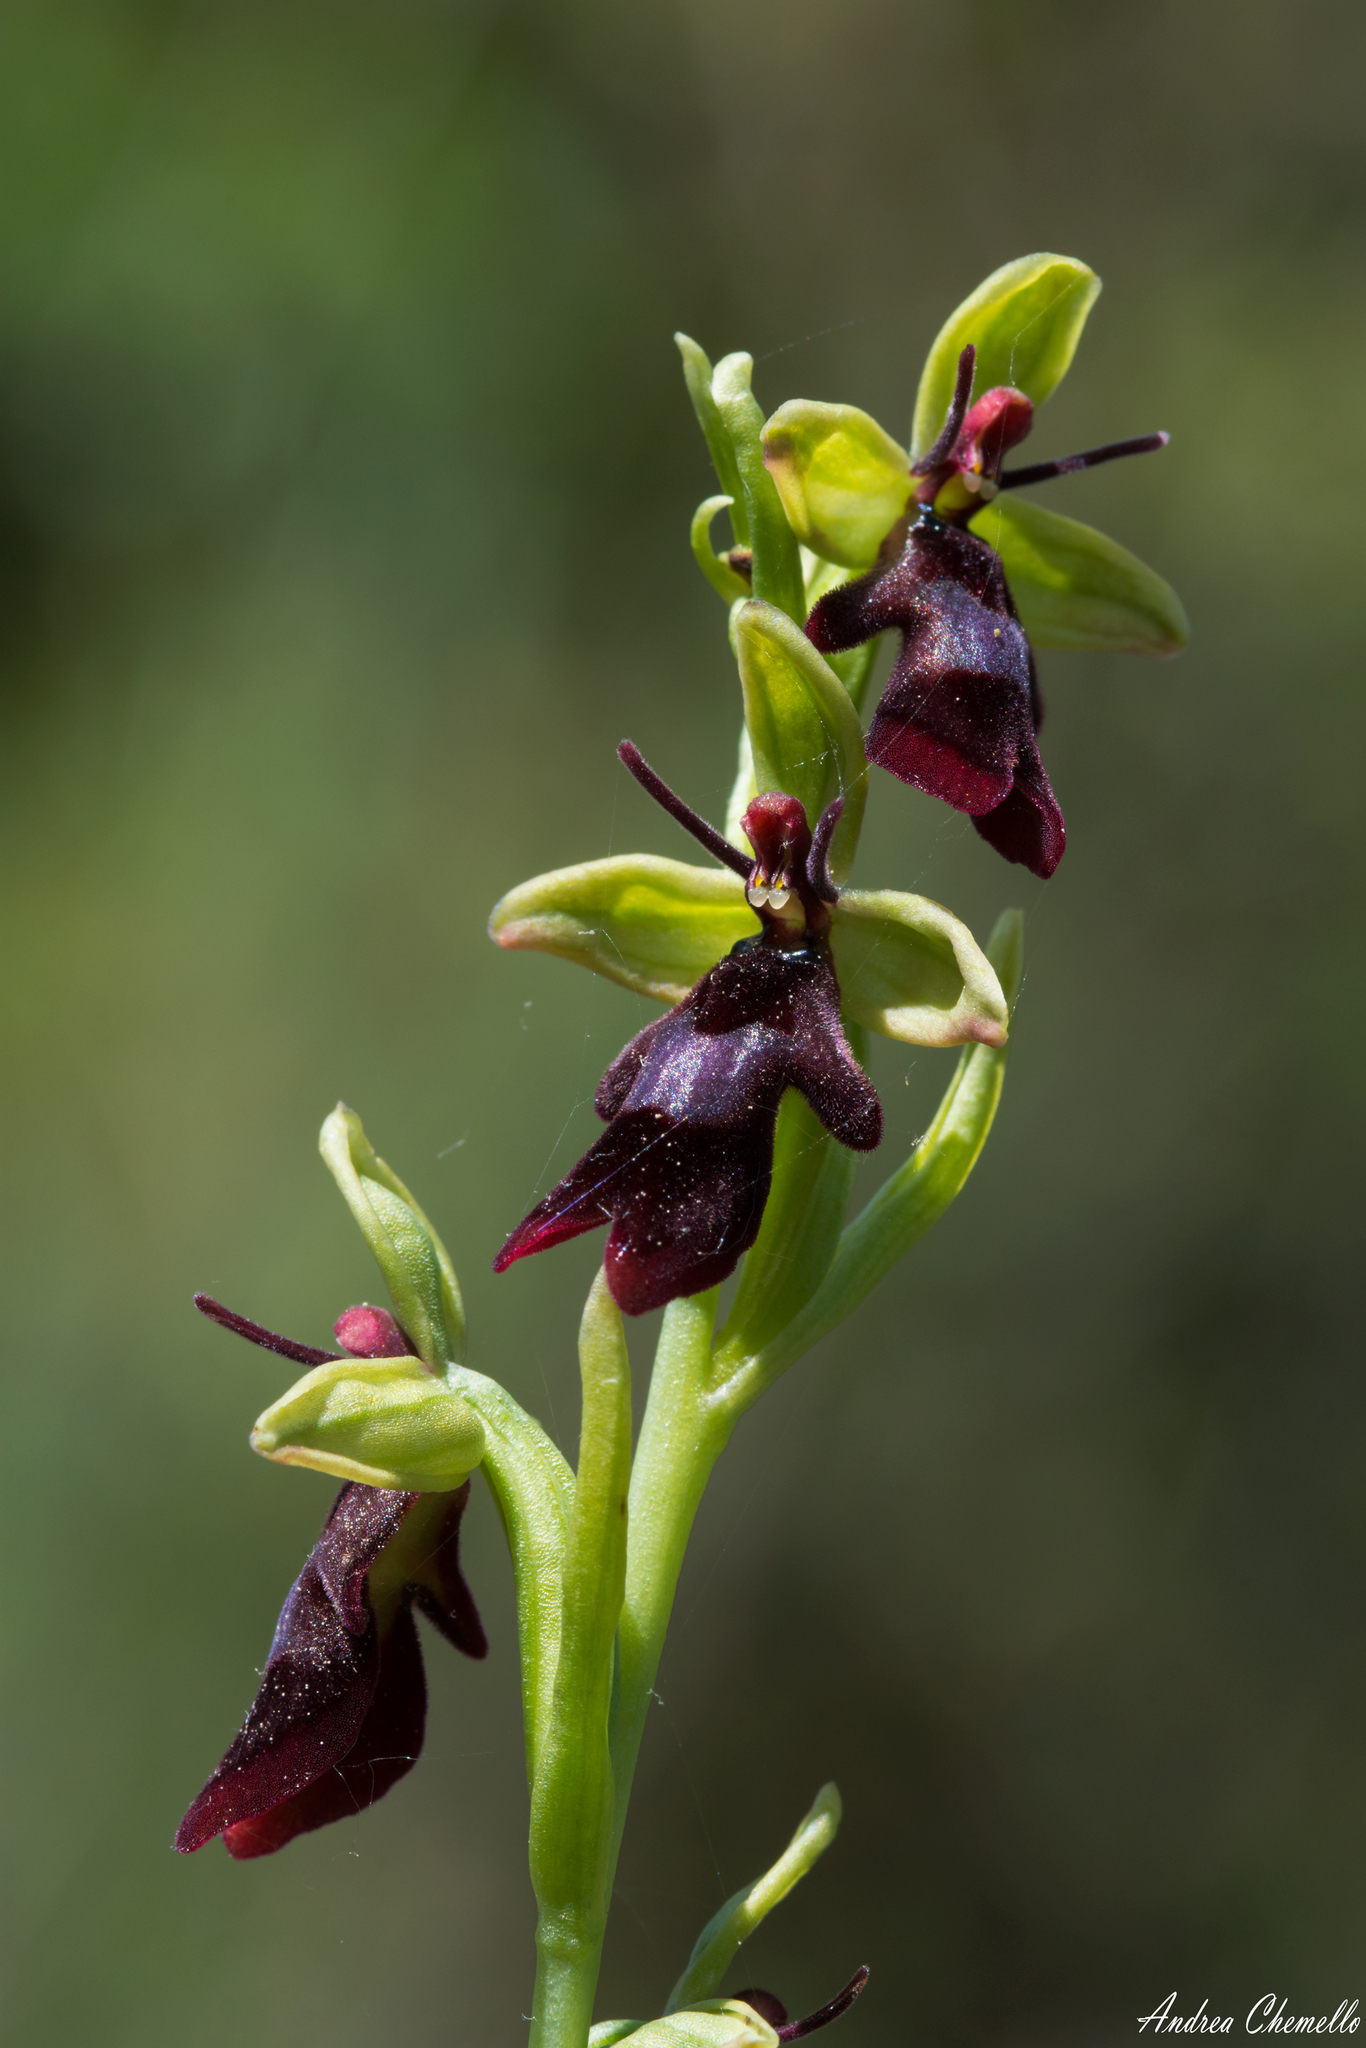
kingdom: Plantae
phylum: Tracheophyta
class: Liliopsida
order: Asparagales
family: Orchidaceae
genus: Ophrys
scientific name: Ophrys insectifera
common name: Fly orchid
